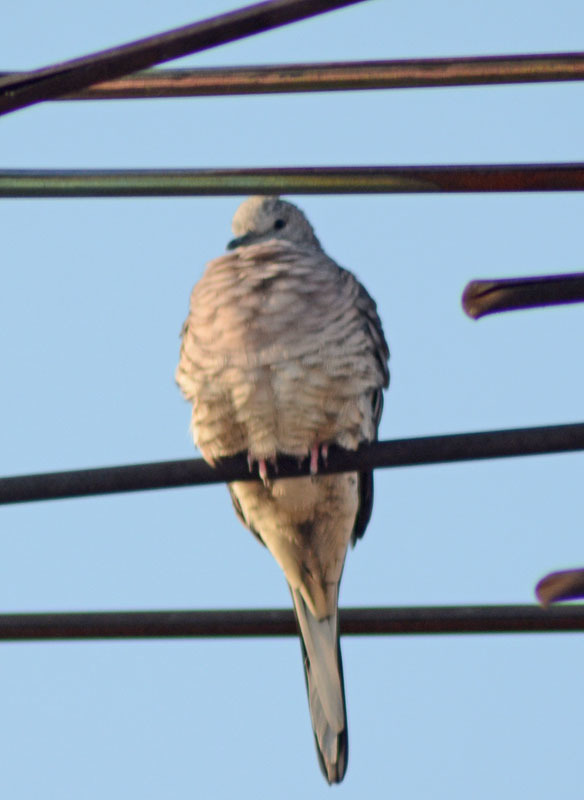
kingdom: Animalia
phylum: Chordata
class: Aves
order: Columbiformes
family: Columbidae
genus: Columbina
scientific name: Columbina inca
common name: Inca dove
